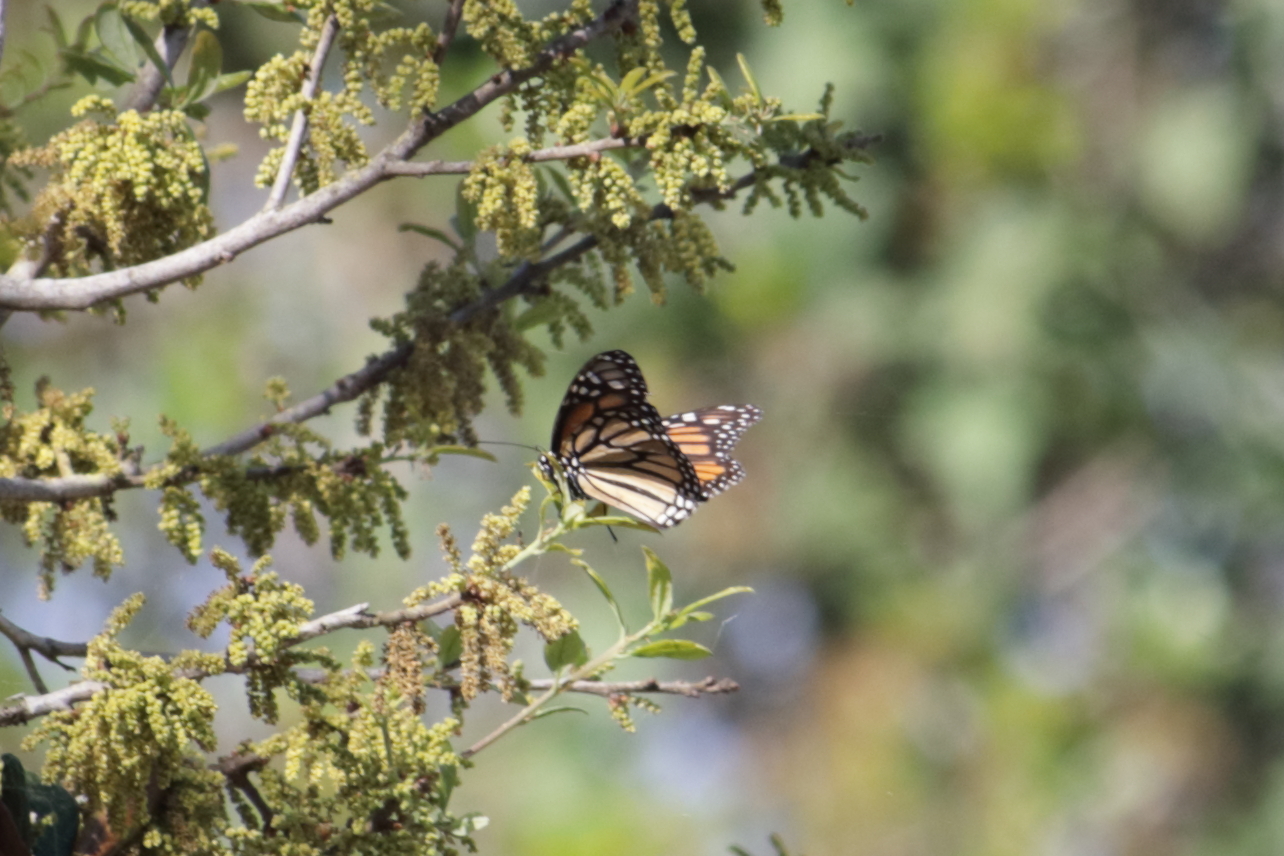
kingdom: Animalia
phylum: Arthropoda
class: Insecta
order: Lepidoptera
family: Nymphalidae
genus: Danaus
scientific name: Danaus plexippus
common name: Monarch
